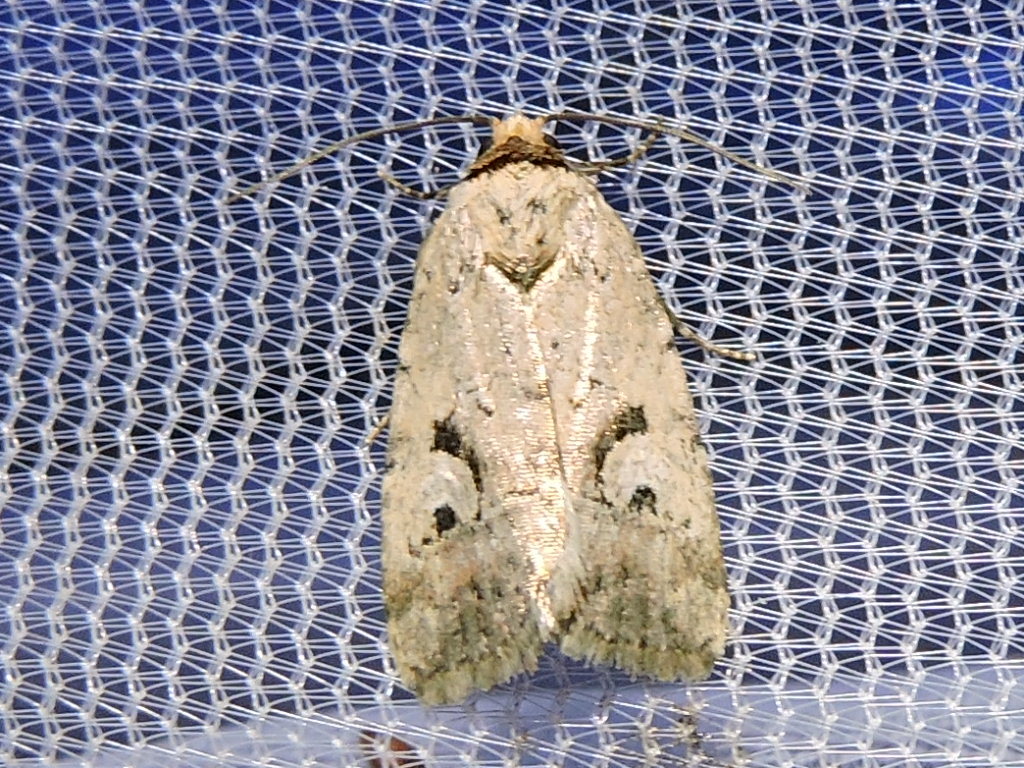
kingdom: Animalia
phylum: Arthropoda
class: Insecta
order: Lepidoptera
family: Noctuidae
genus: Elaphria
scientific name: Elaphria festivoides
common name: Festive midget
